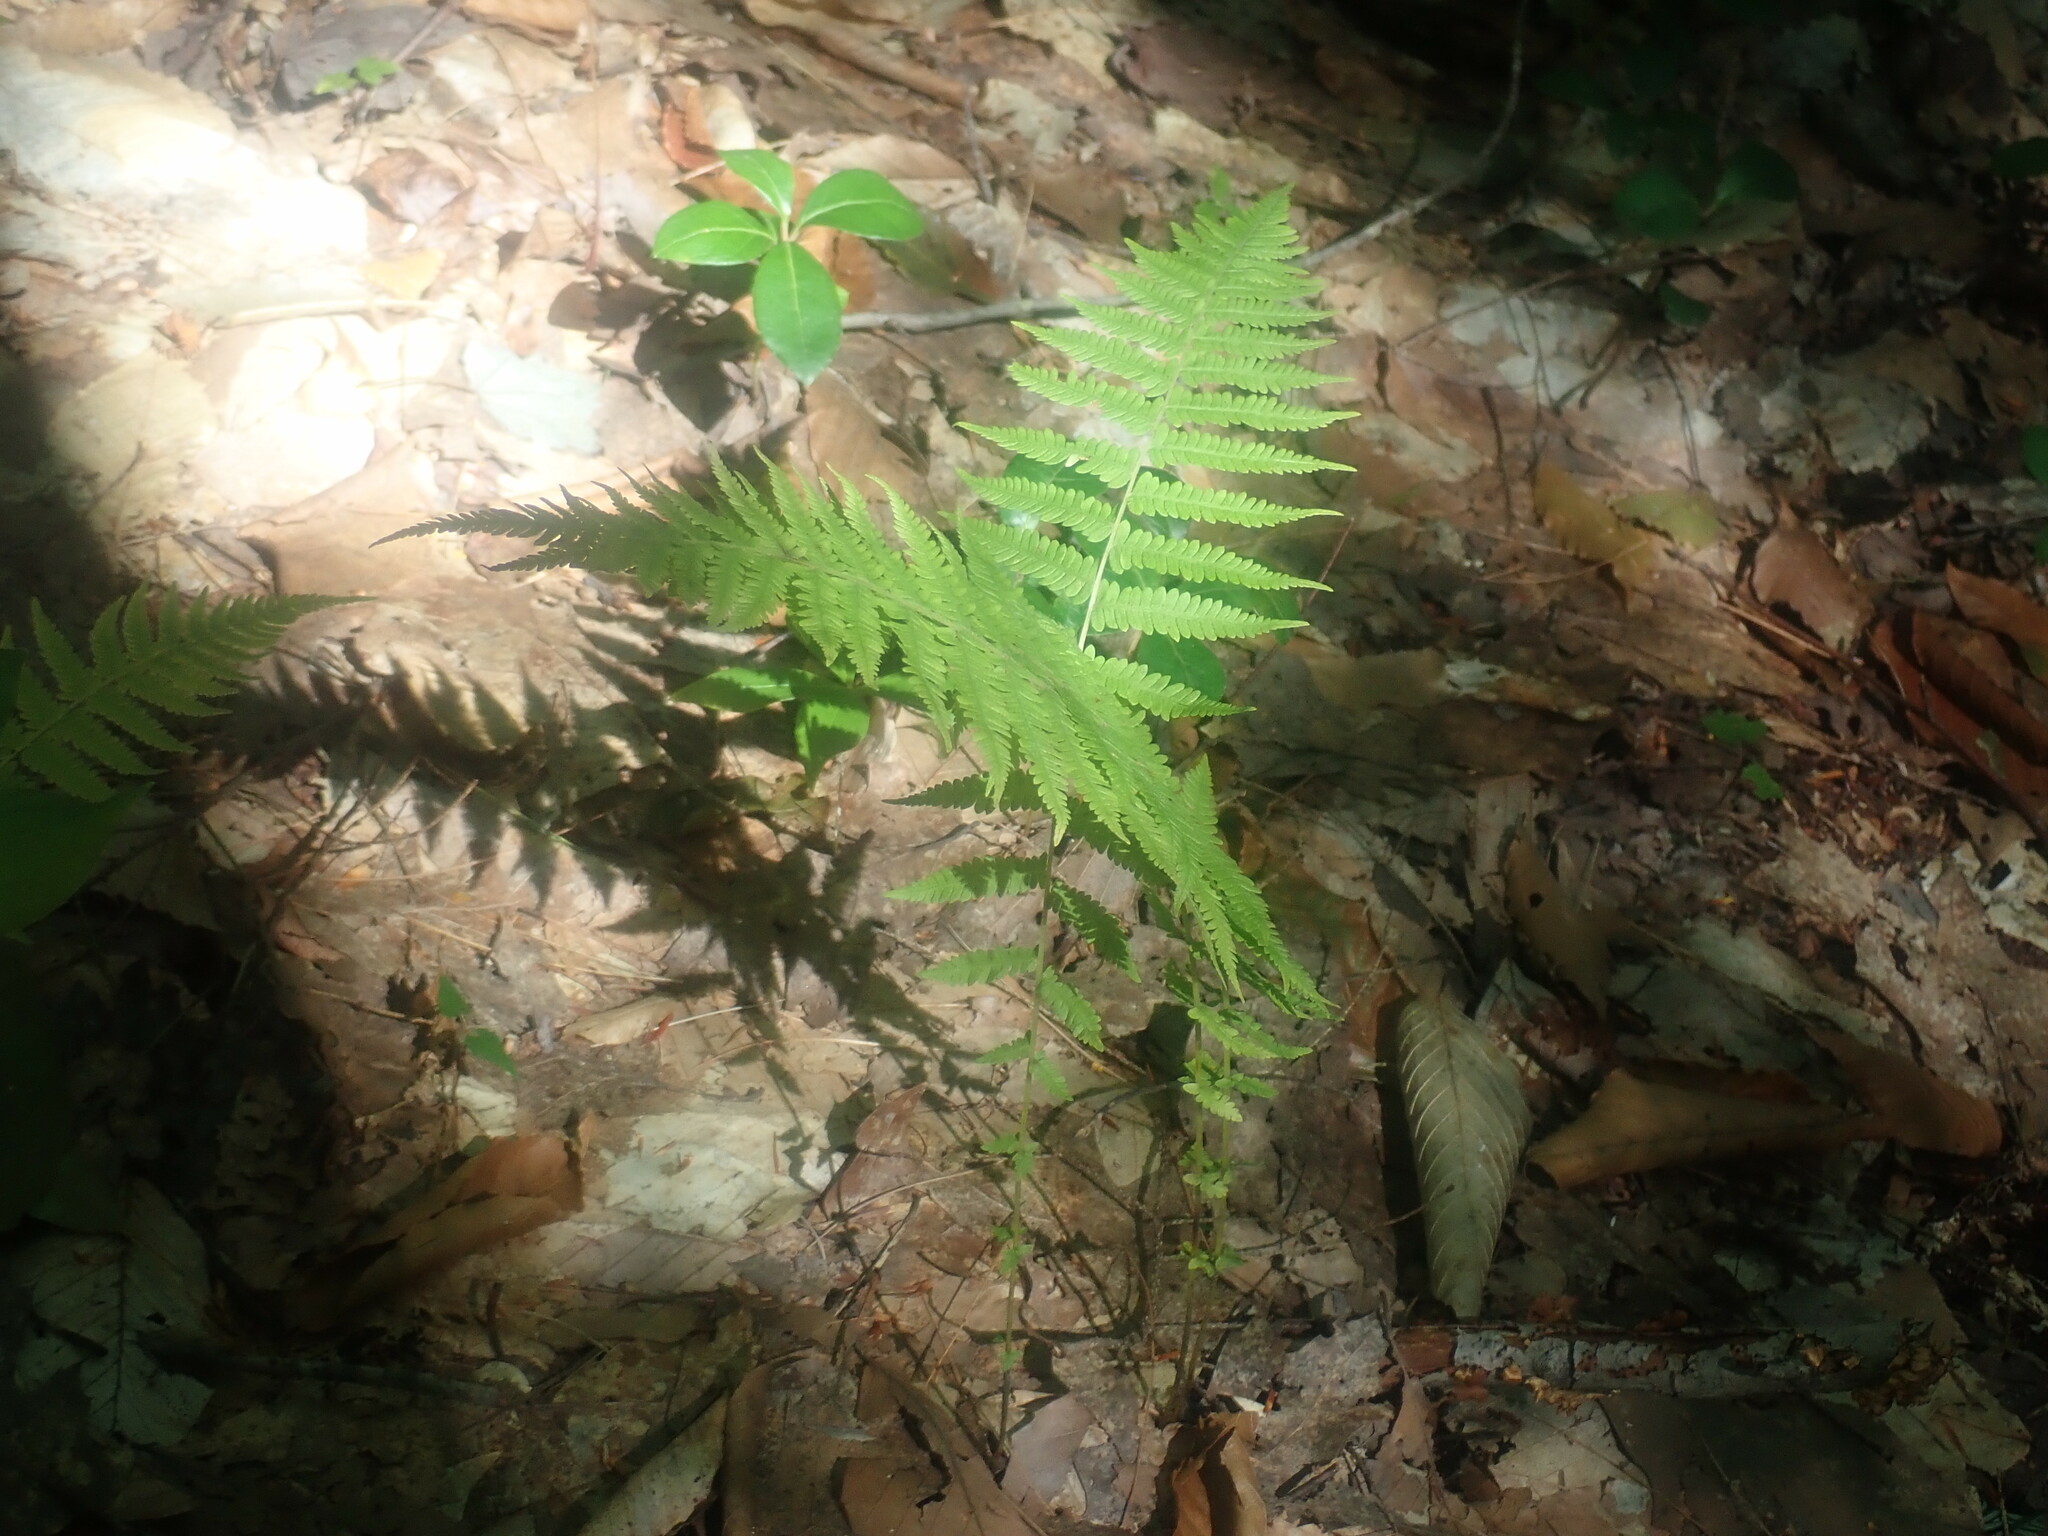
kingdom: Plantae
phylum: Tracheophyta
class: Polypodiopsida
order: Polypodiales
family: Thelypteridaceae
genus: Amauropelta
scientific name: Amauropelta noveboracensis
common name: New york fern
